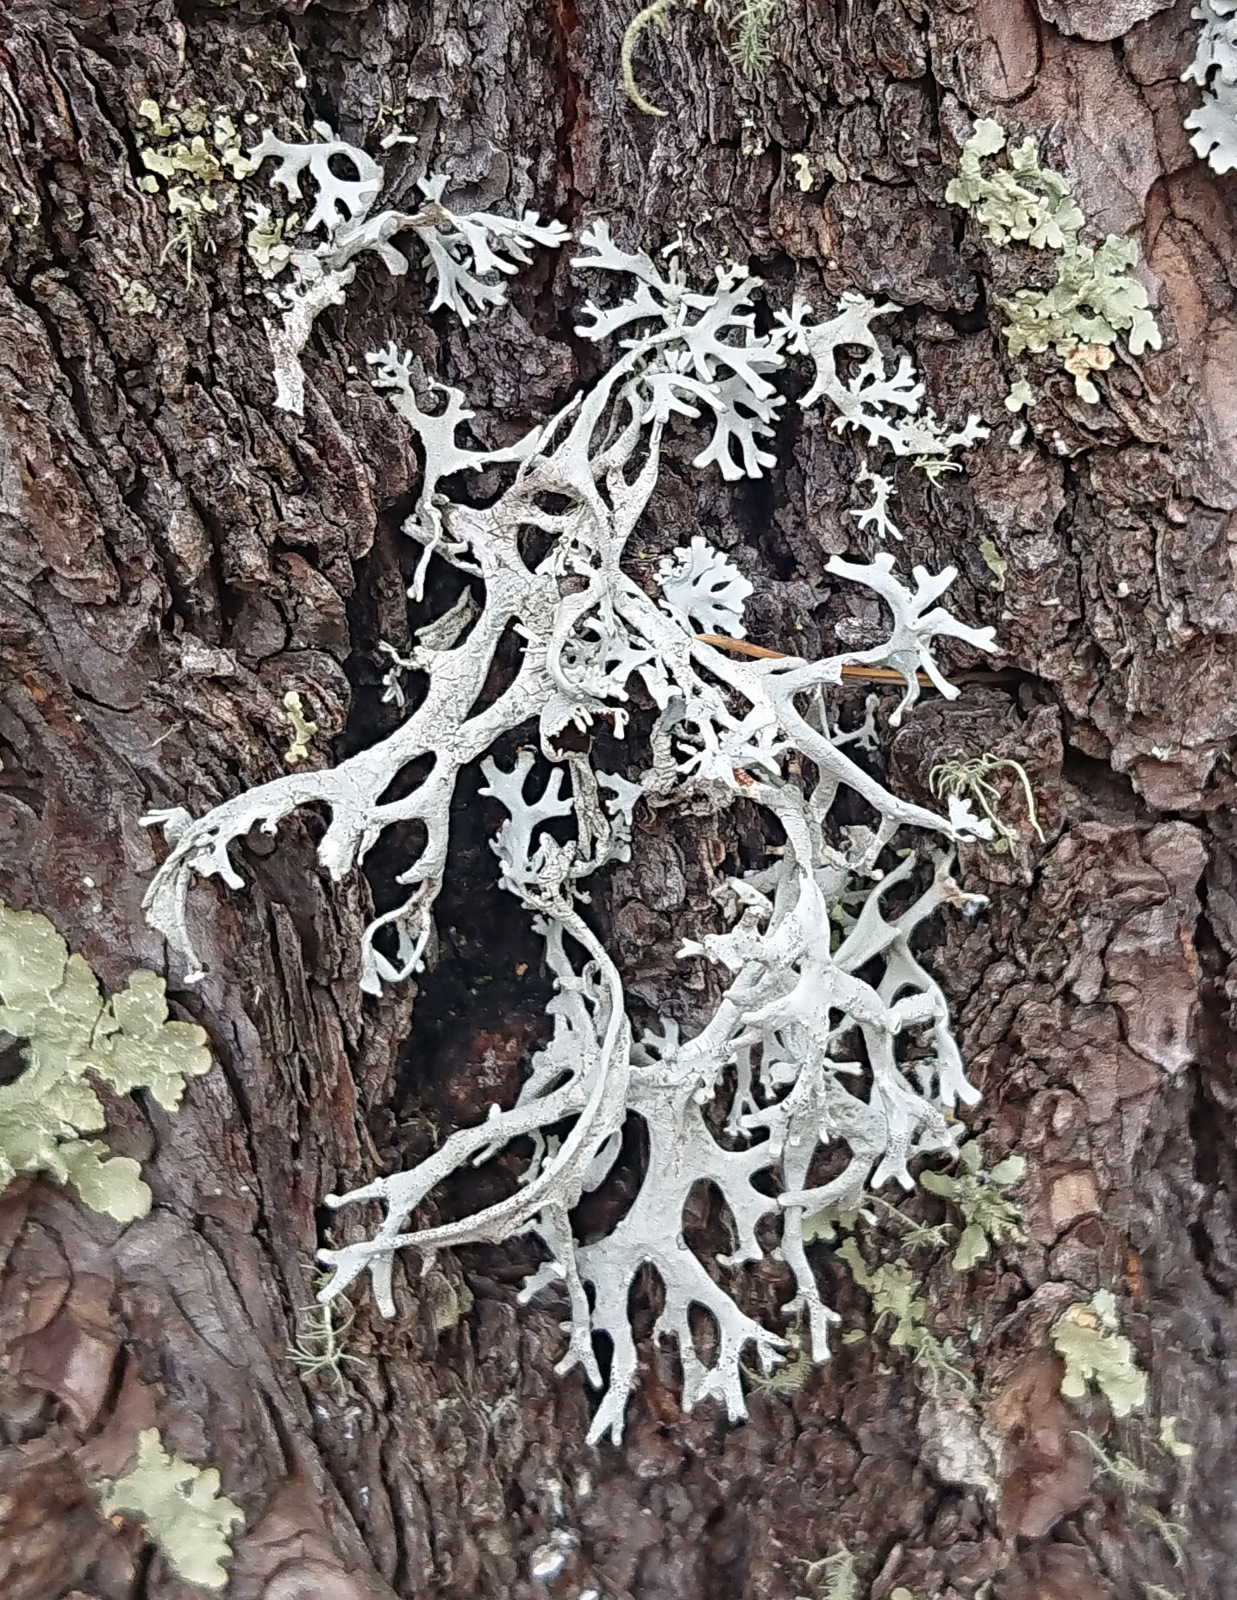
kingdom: Fungi
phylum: Ascomycota
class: Lecanoromycetes
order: Lecanorales
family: Parmeliaceae
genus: Pseudevernia
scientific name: Pseudevernia intensa
